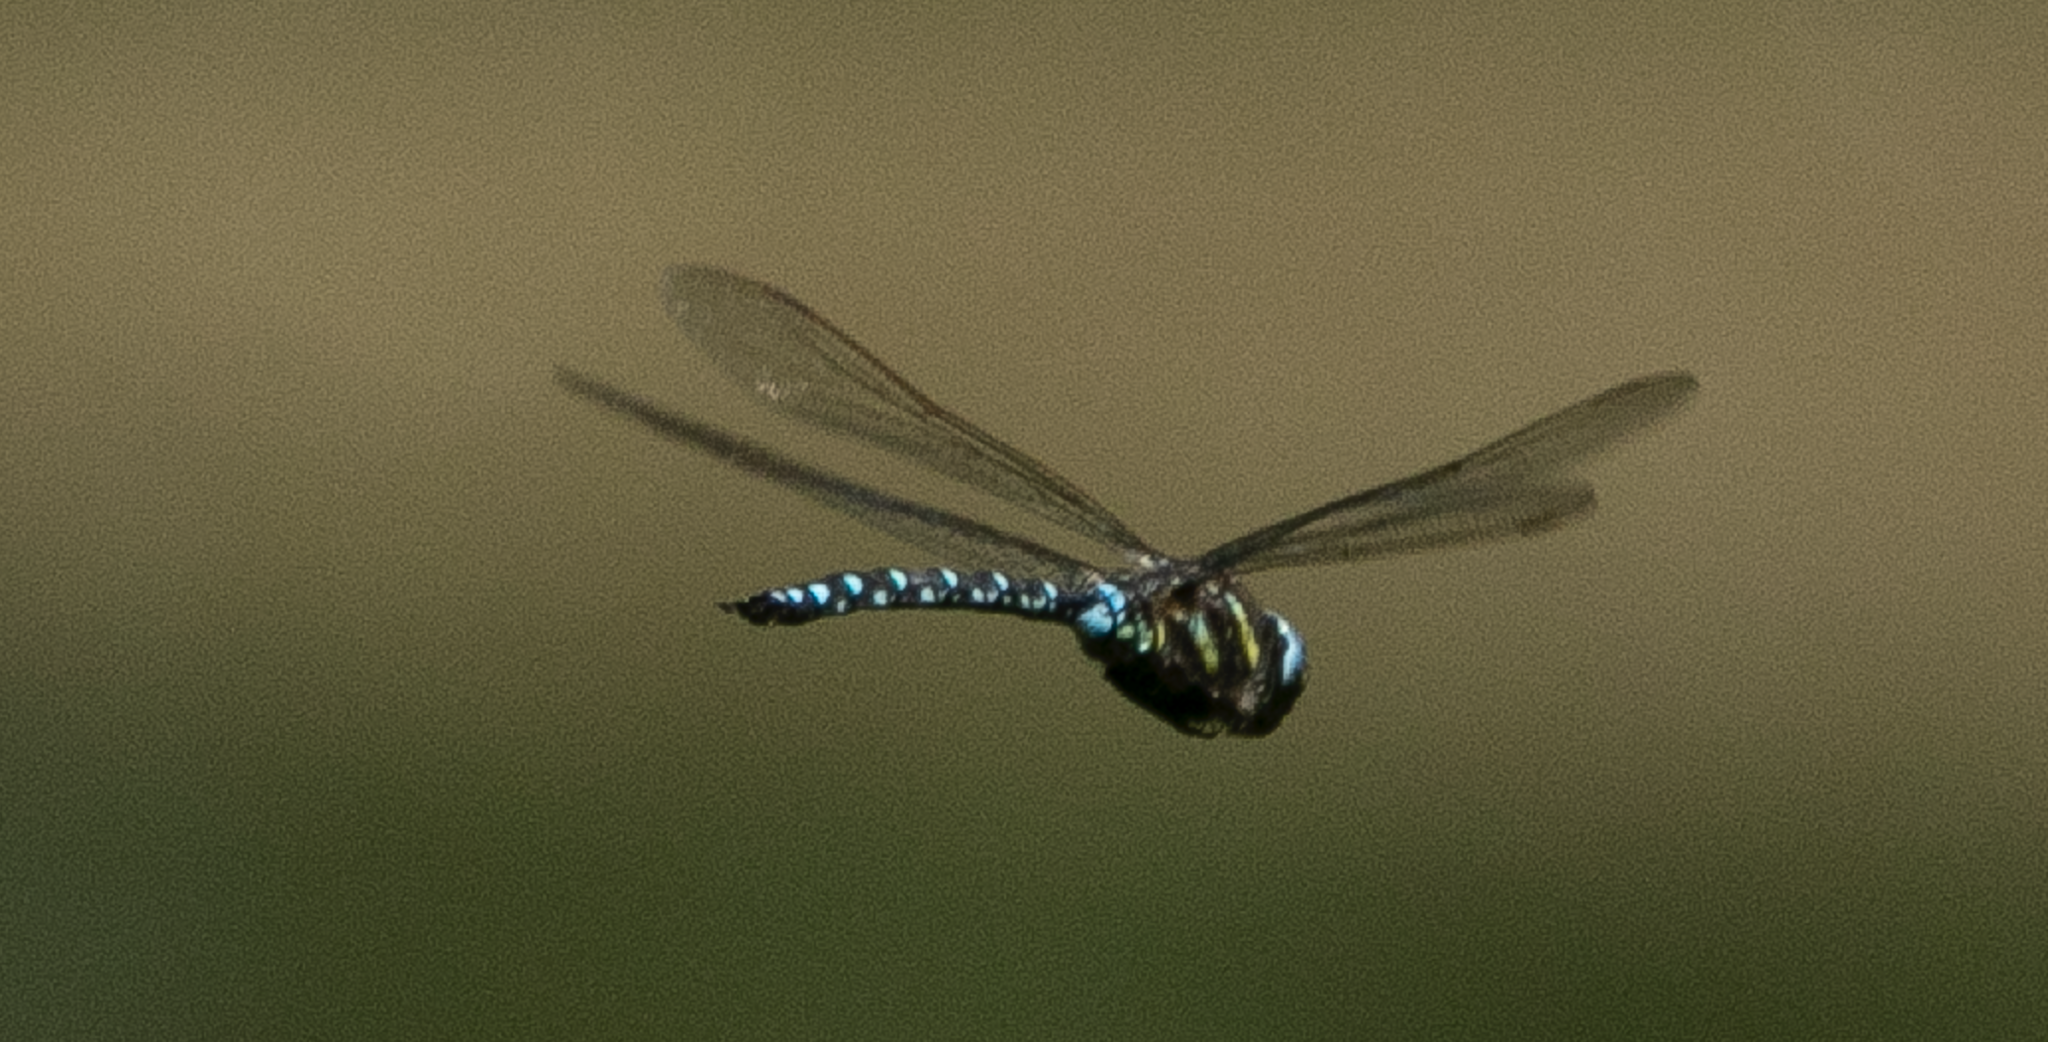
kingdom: Animalia
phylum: Arthropoda
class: Insecta
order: Odonata
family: Aeshnidae
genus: Aeshna
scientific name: Aeshna juncea
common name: Moorland hawker
